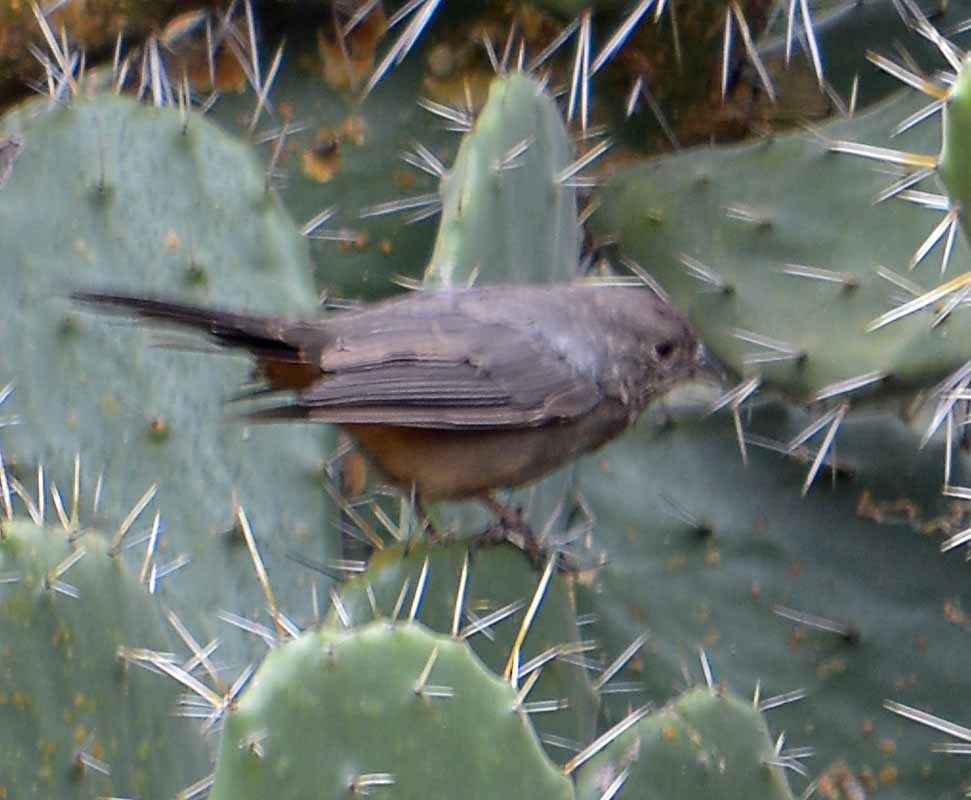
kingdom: Animalia
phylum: Chordata
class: Aves
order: Passeriformes
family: Passerellidae
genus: Melozone
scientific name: Melozone fusca
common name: Canyon towhee
